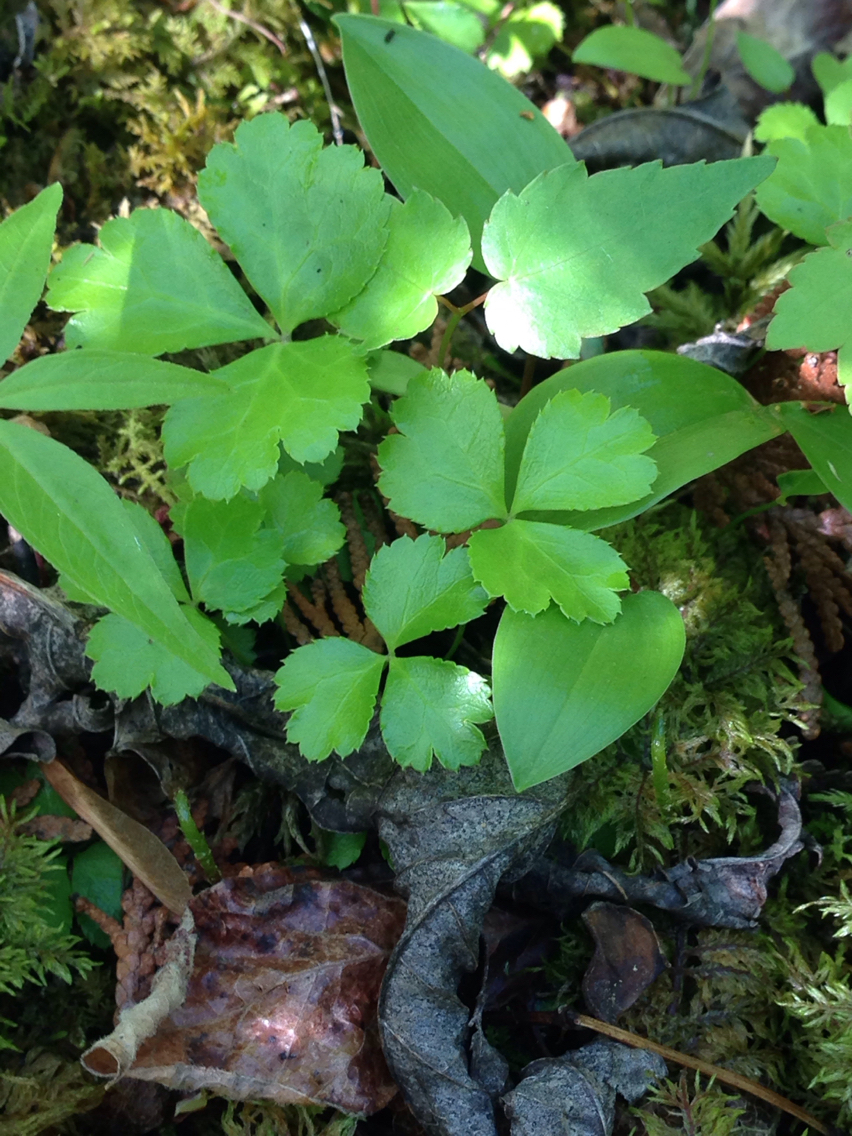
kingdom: Plantae
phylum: Tracheophyta
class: Magnoliopsida
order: Ranunculales
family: Ranunculaceae
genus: Coptis
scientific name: Coptis trifolia
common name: Canker-root
